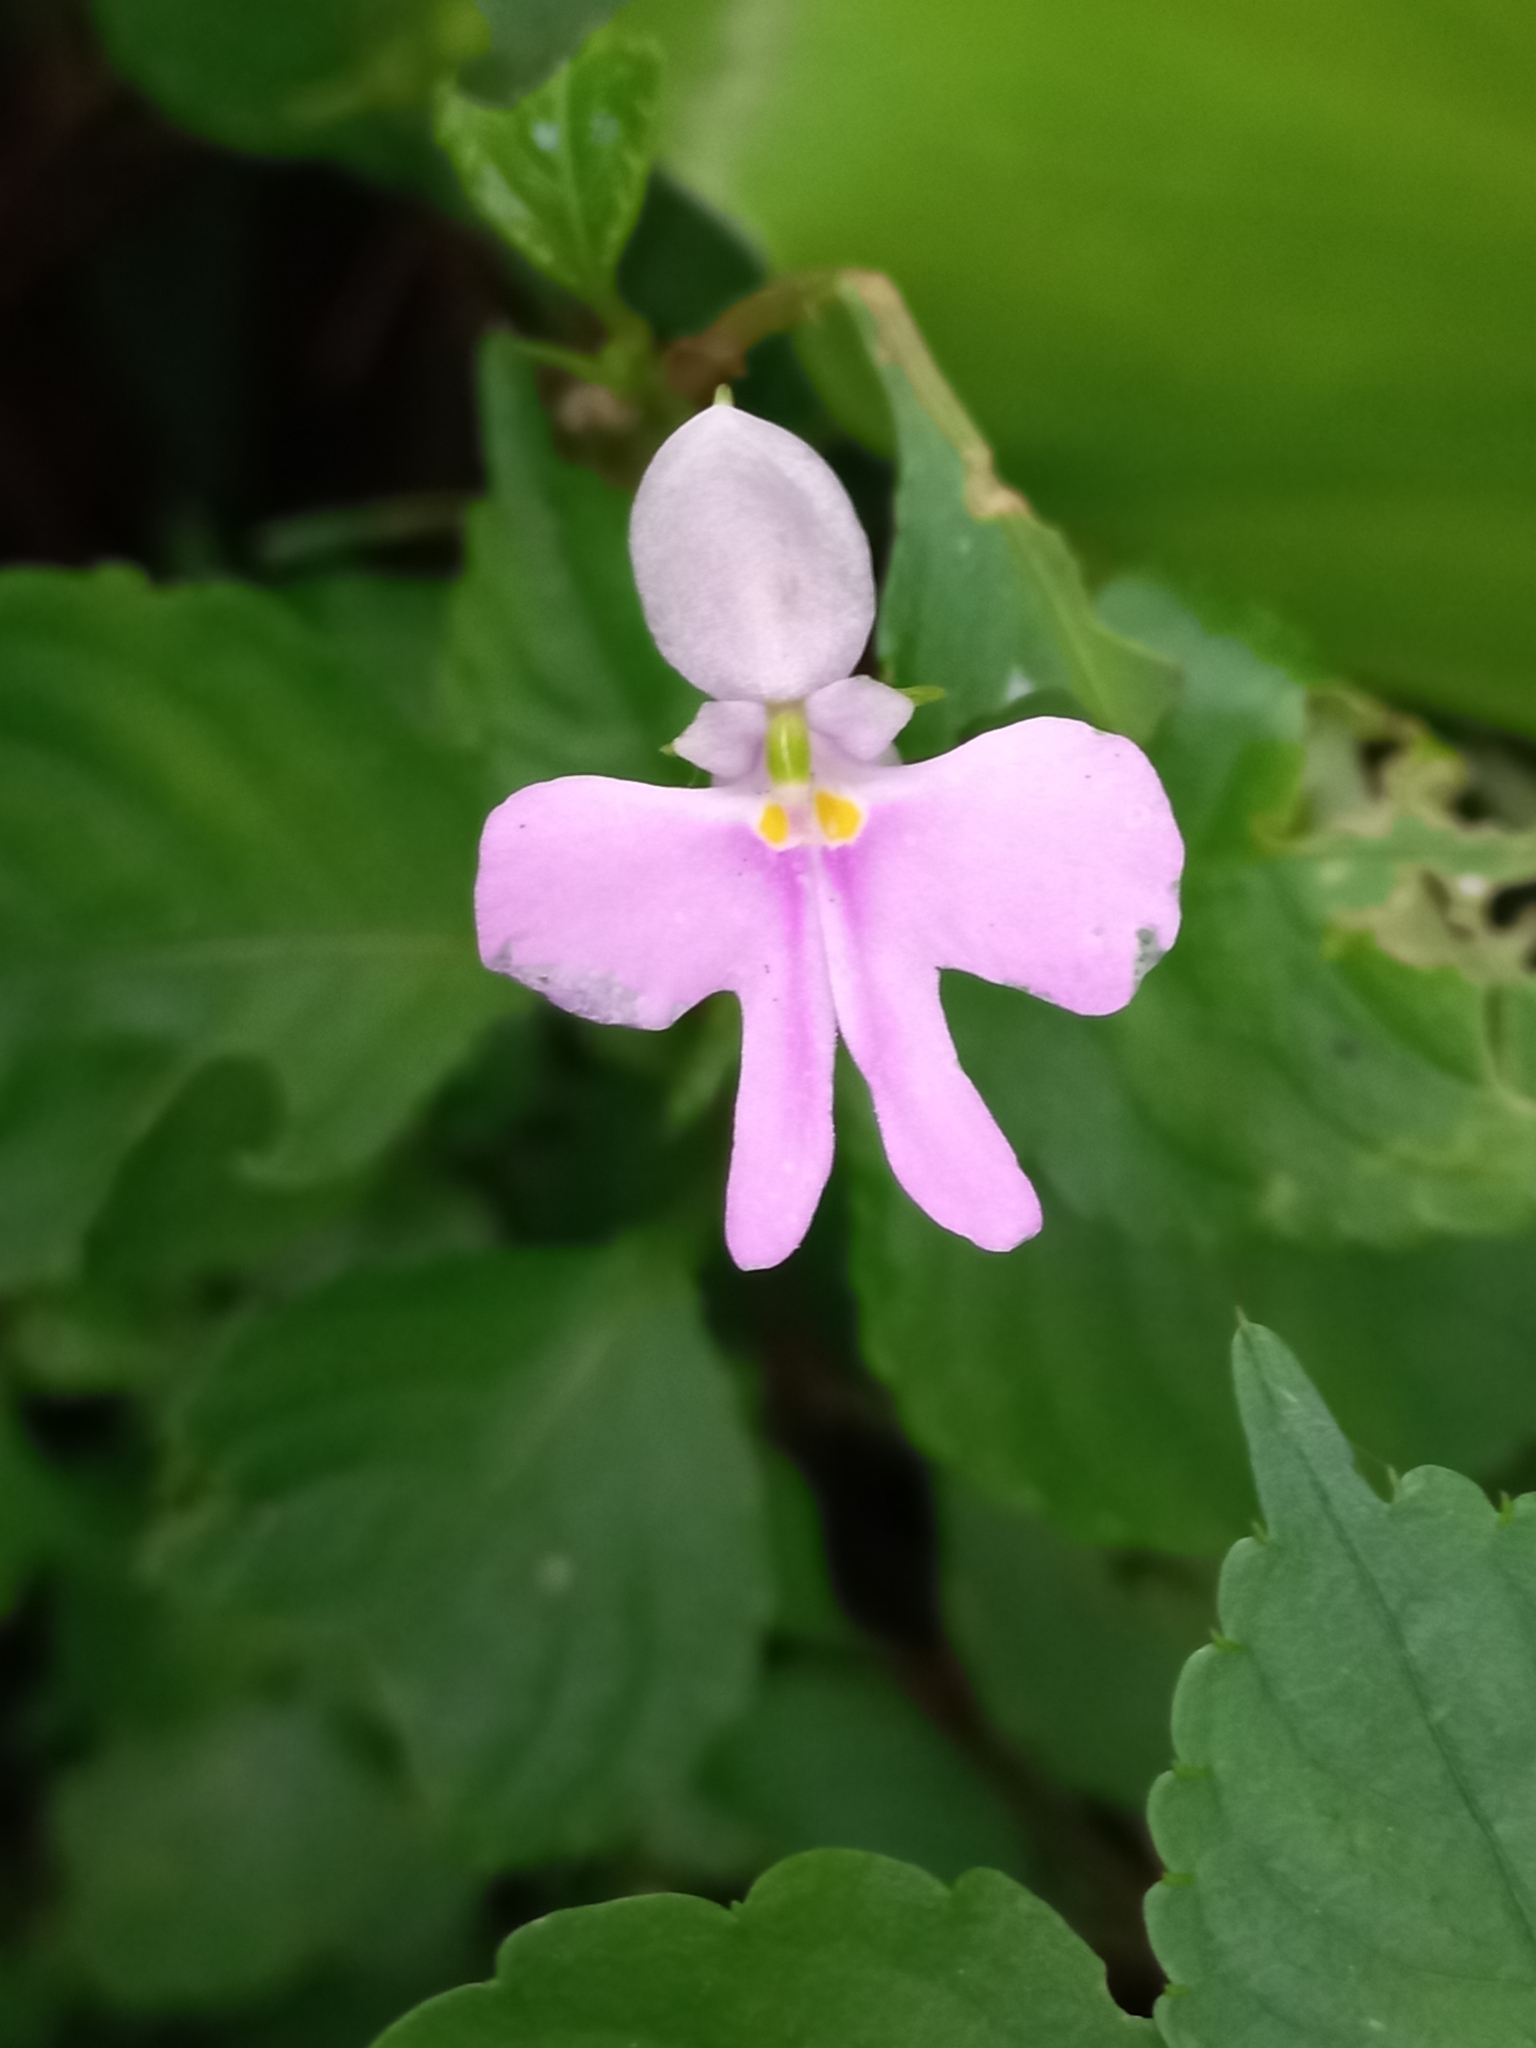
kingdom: Plantae
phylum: Tracheophyta
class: Magnoliopsida
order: Ericales
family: Balsaminaceae
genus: Impatiens
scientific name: Impatiens hochstetteri
